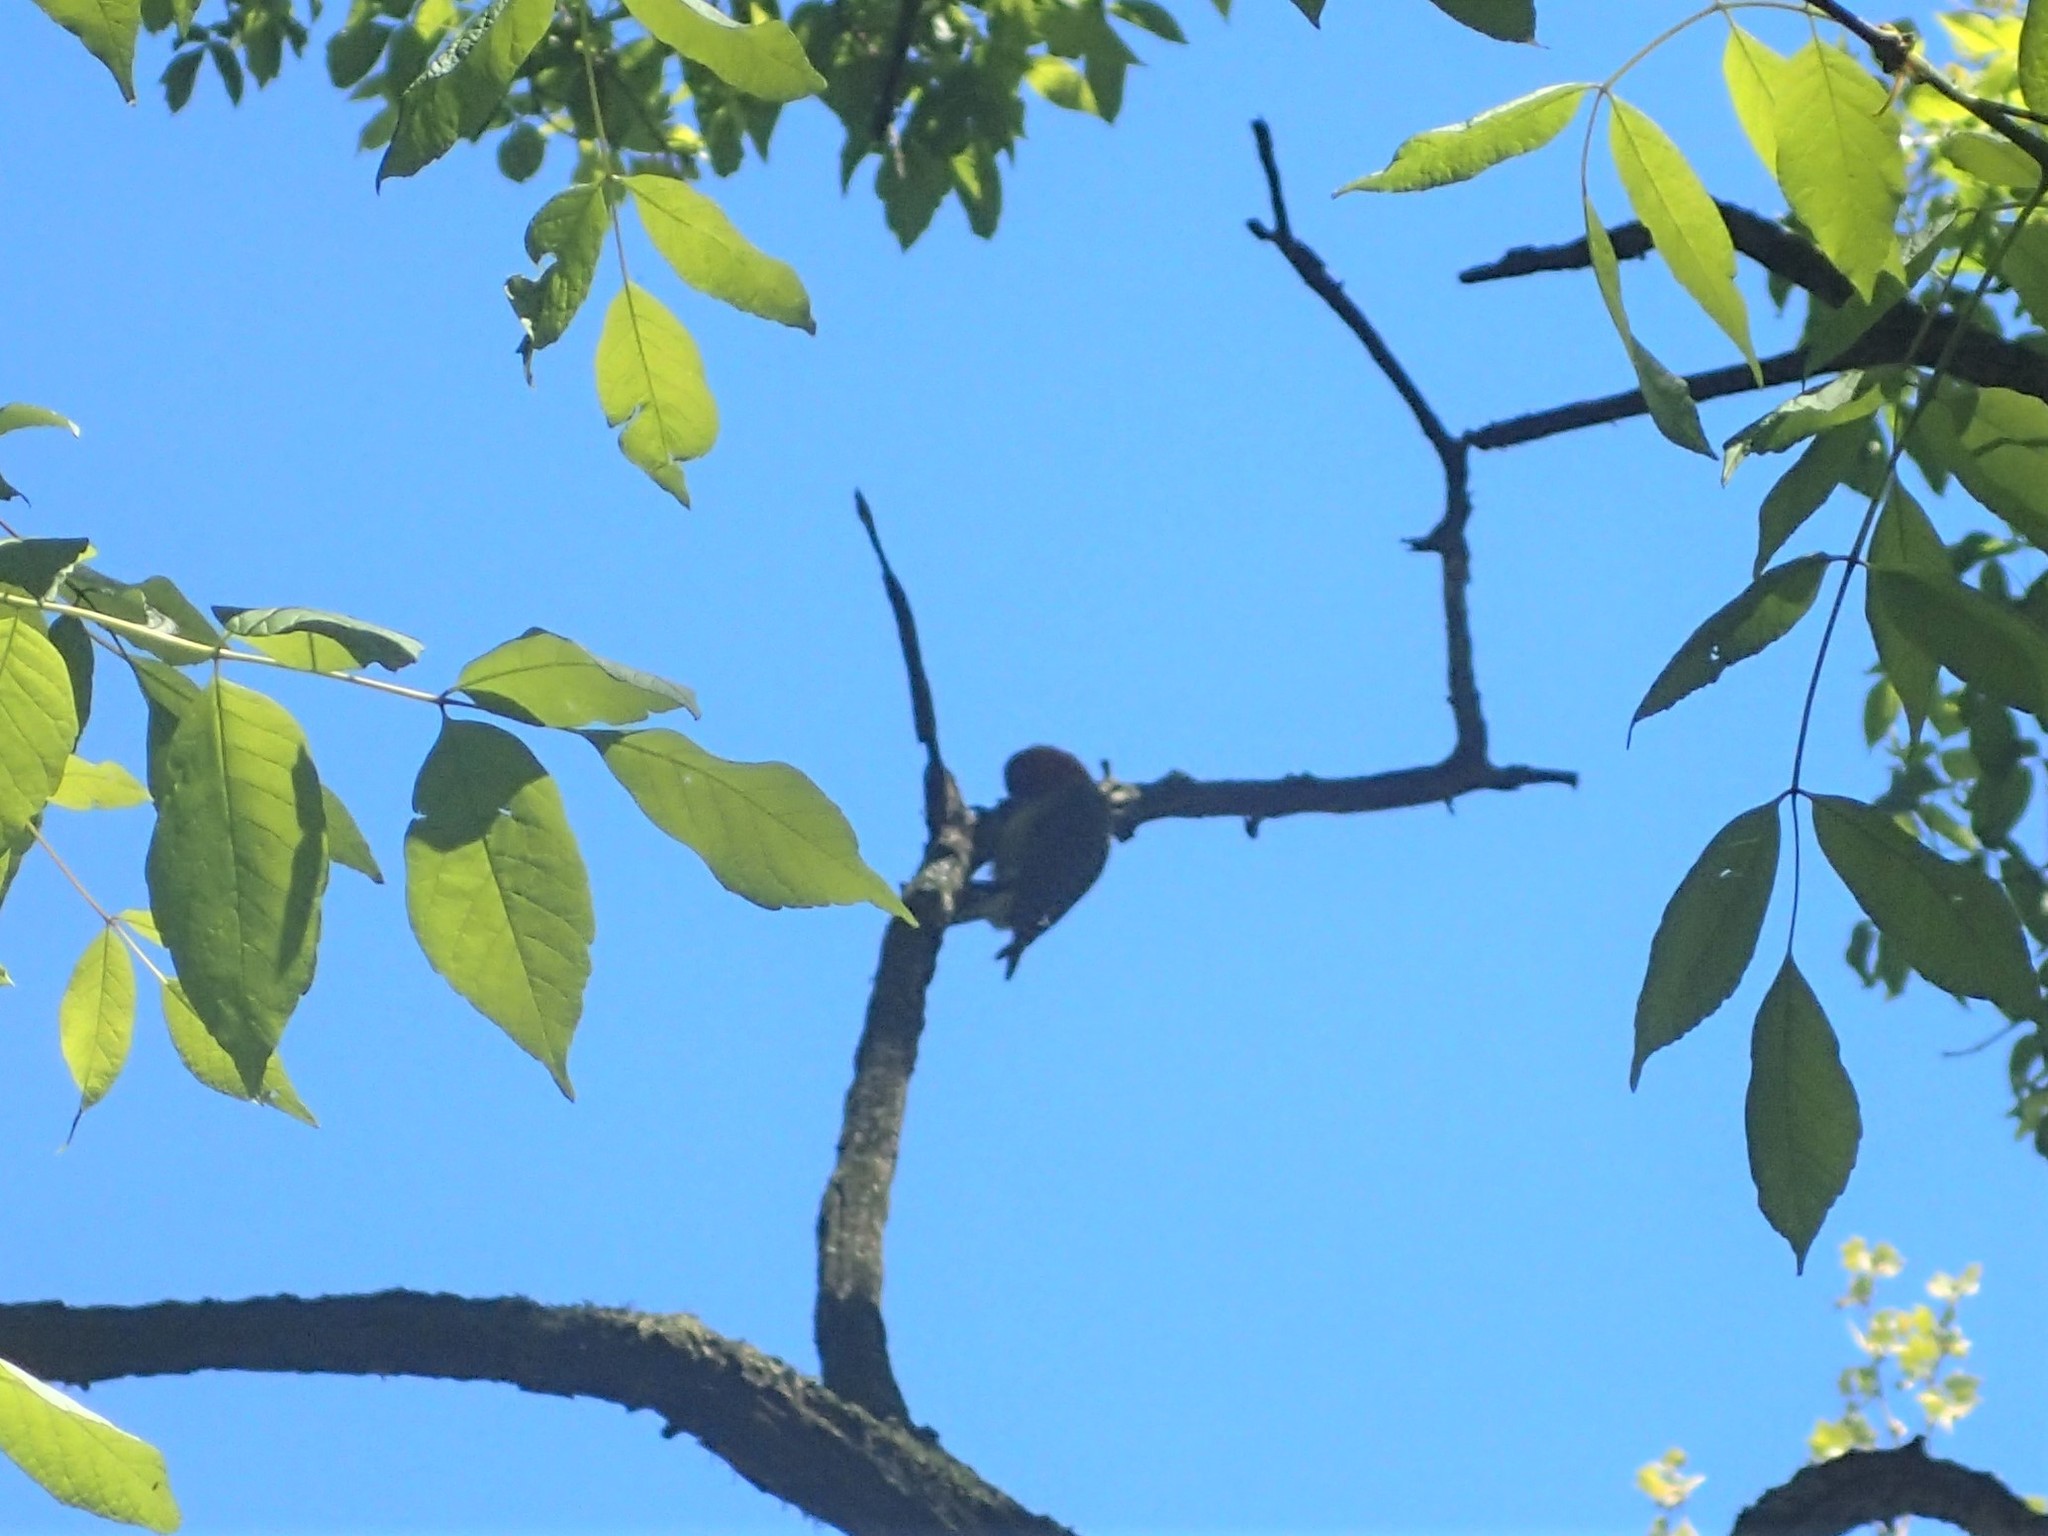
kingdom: Animalia
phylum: Chordata
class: Aves
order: Piciformes
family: Picidae
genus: Melanerpes
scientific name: Melanerpes carolinus
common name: Red-bellied woodpecker
